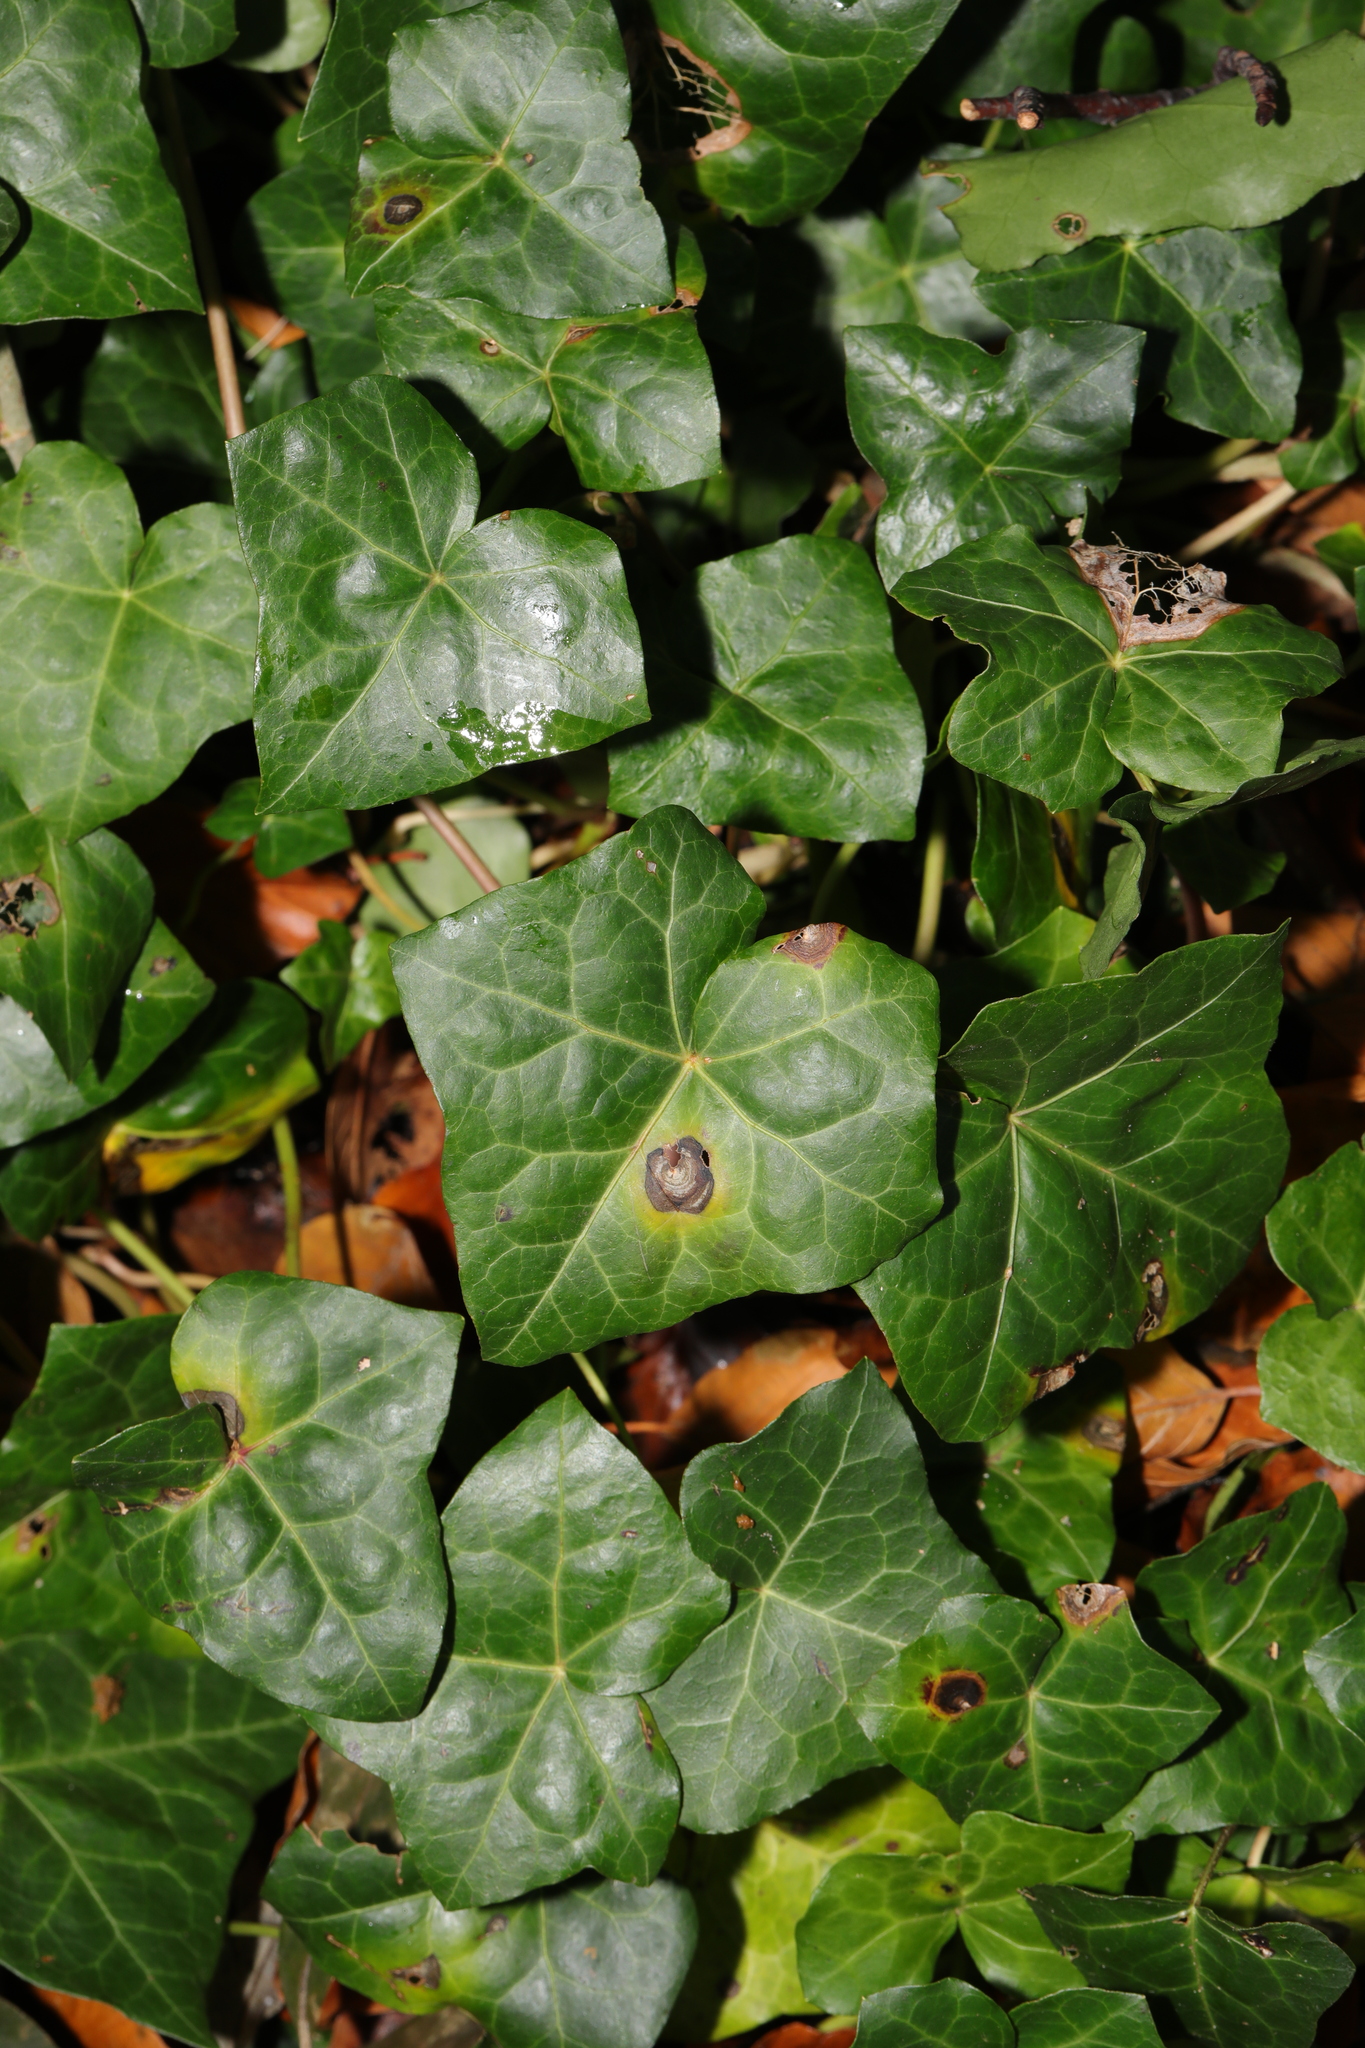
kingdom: Plantae
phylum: Tracheophyta
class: Magnoliopsida
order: Apiales
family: Araliaceae
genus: Hedera
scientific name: Hedera helix
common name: Ivy
